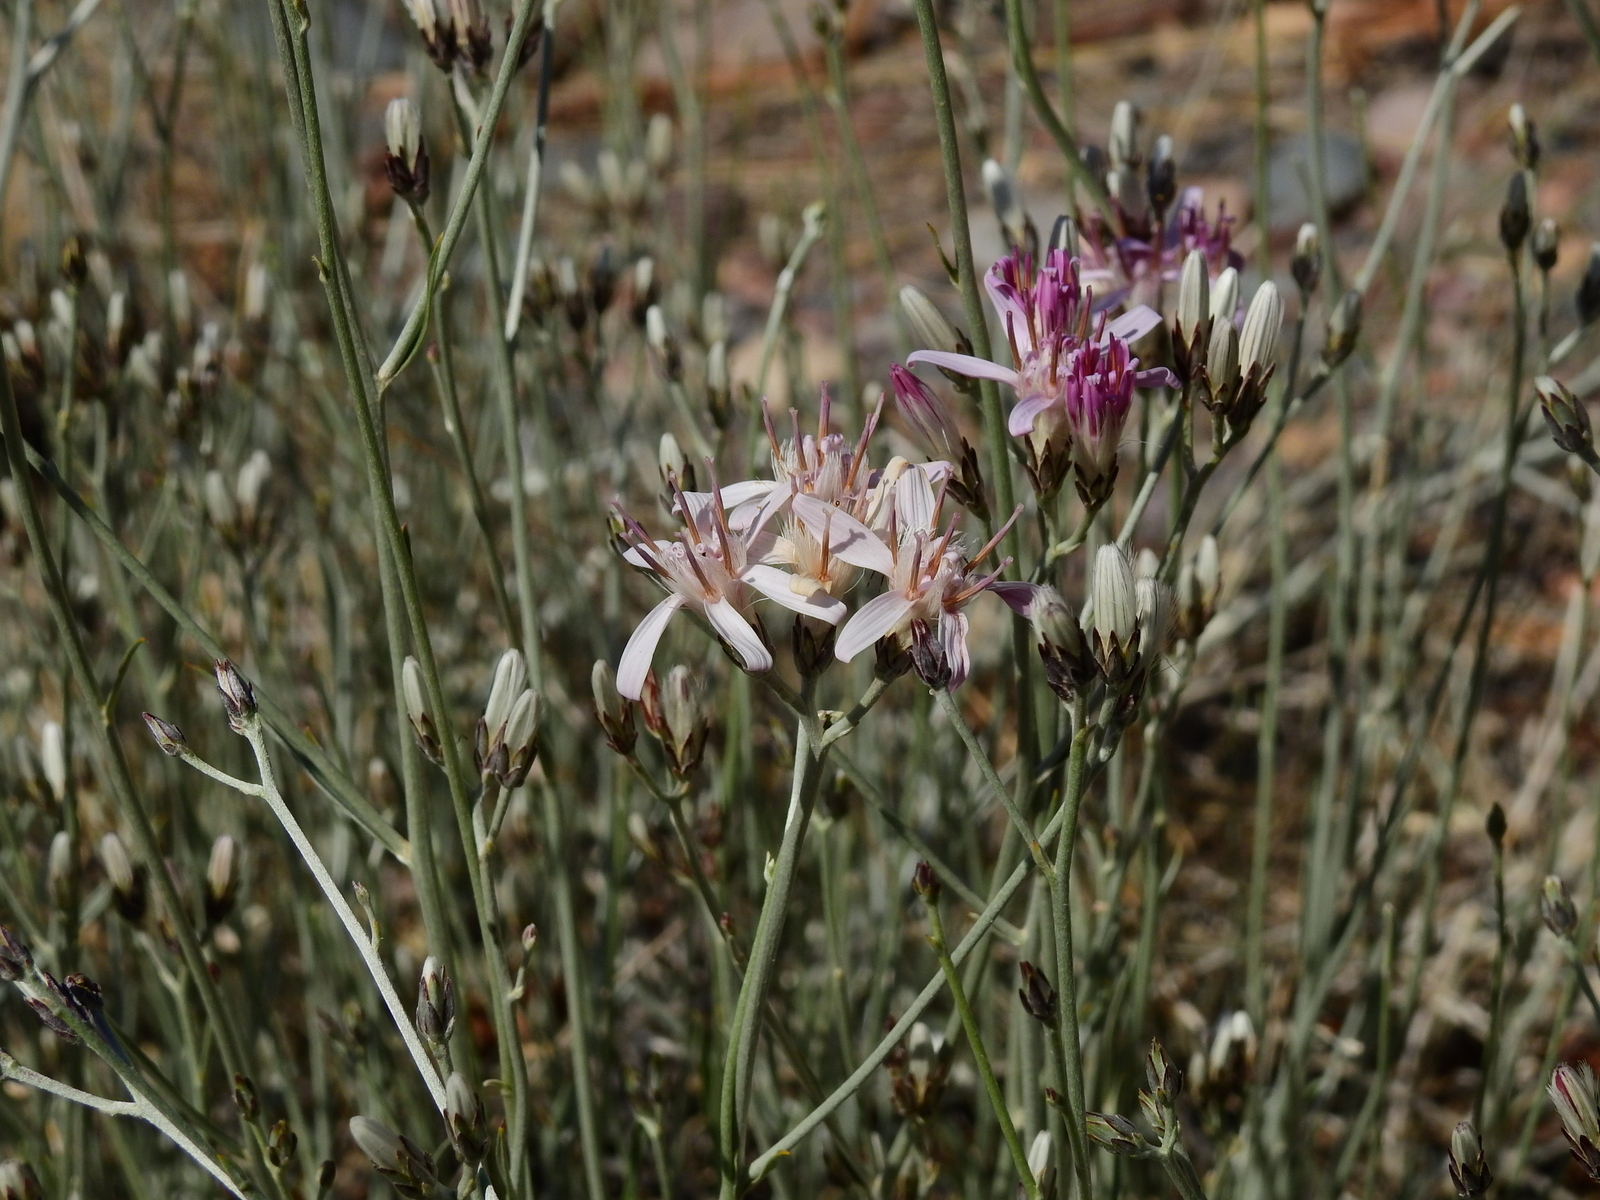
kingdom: Plantae
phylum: Tracheophyta
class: Magnoliopsida
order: Asterales
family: Asteraceae
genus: Hyalis
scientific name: Hyalis argentea
